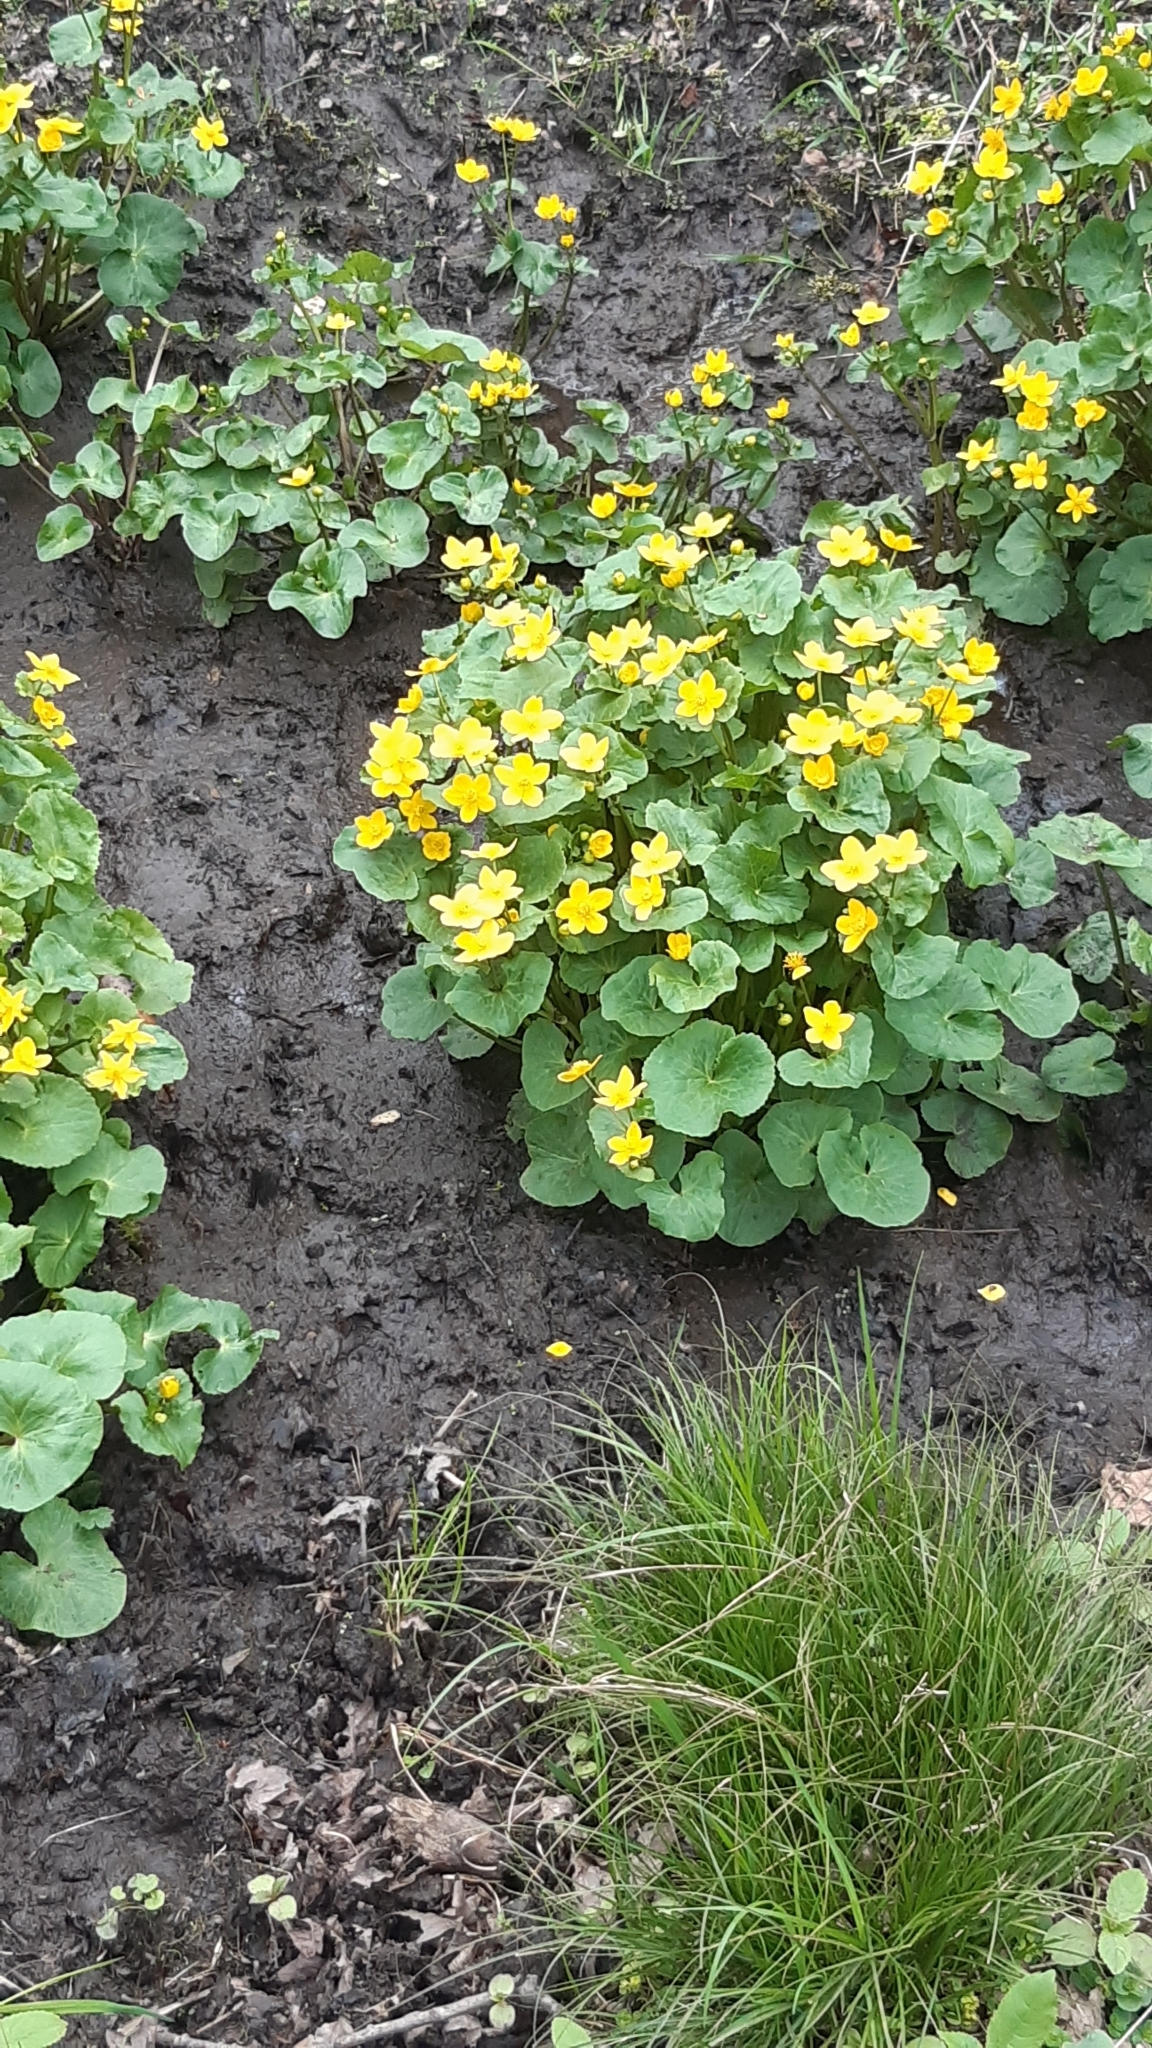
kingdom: Plantae
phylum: Tracheophyta
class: Magnoliopsida
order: Ranunculales
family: Ranunculaceae
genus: Caltha
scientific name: Caltha palustris
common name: Marsh marigold
